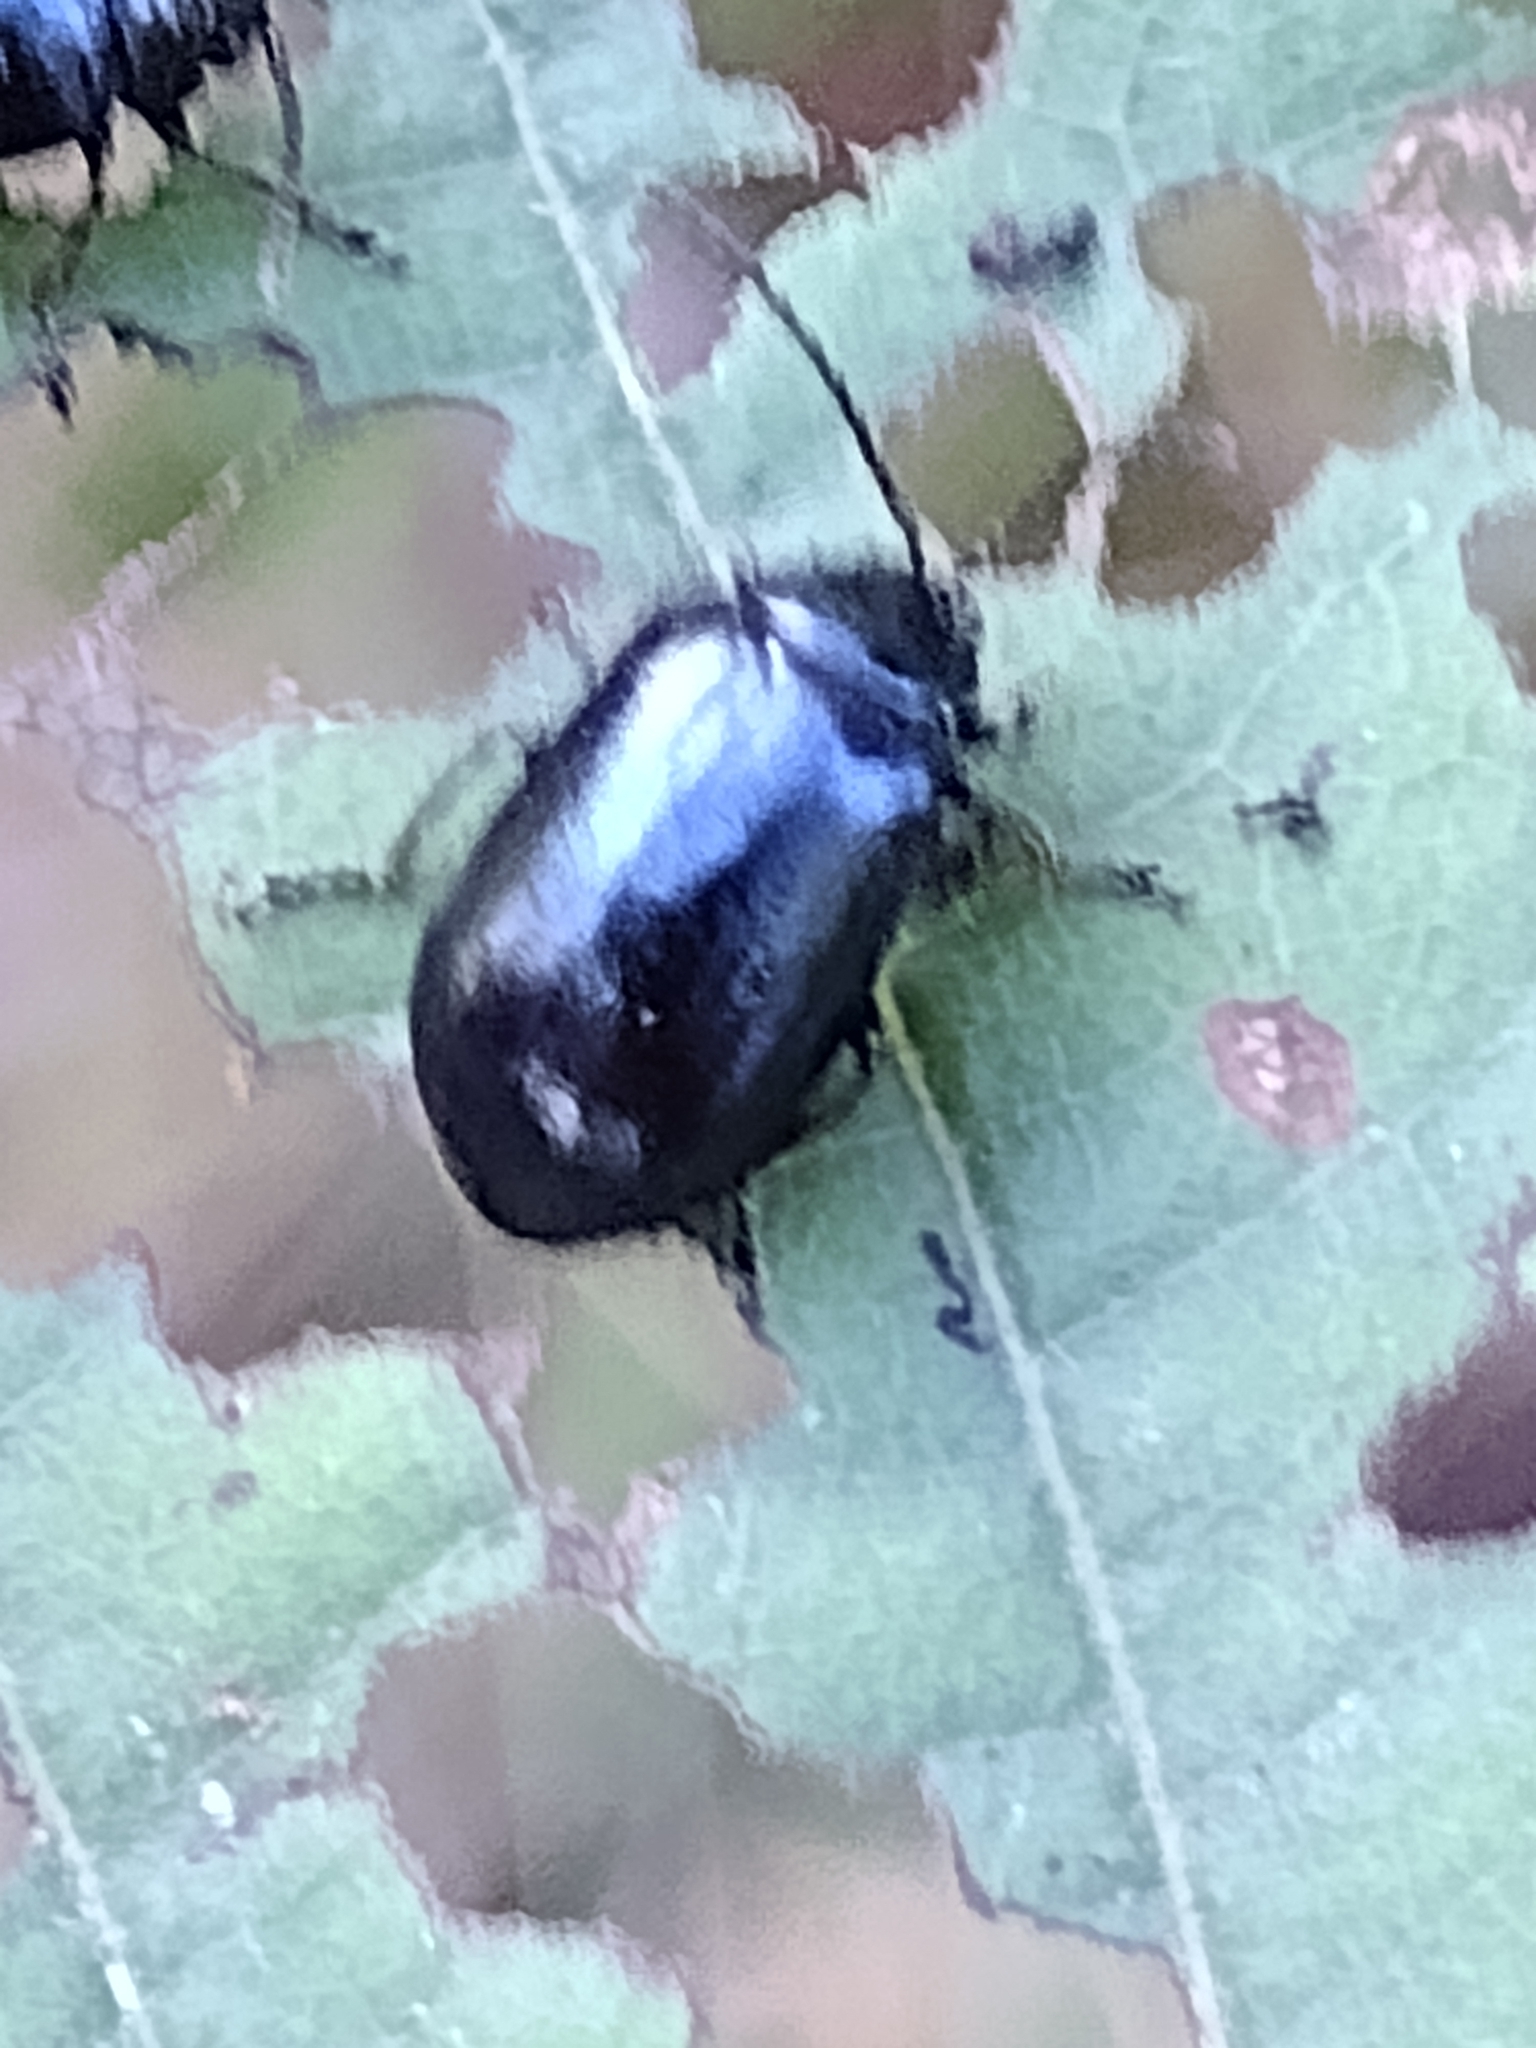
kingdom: Animalia
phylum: Arthropoda
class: Insecta
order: Coleoptera
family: Chrysomelidae
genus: Agelastica
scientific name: Agelastica alni
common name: Alder leaf beetle
